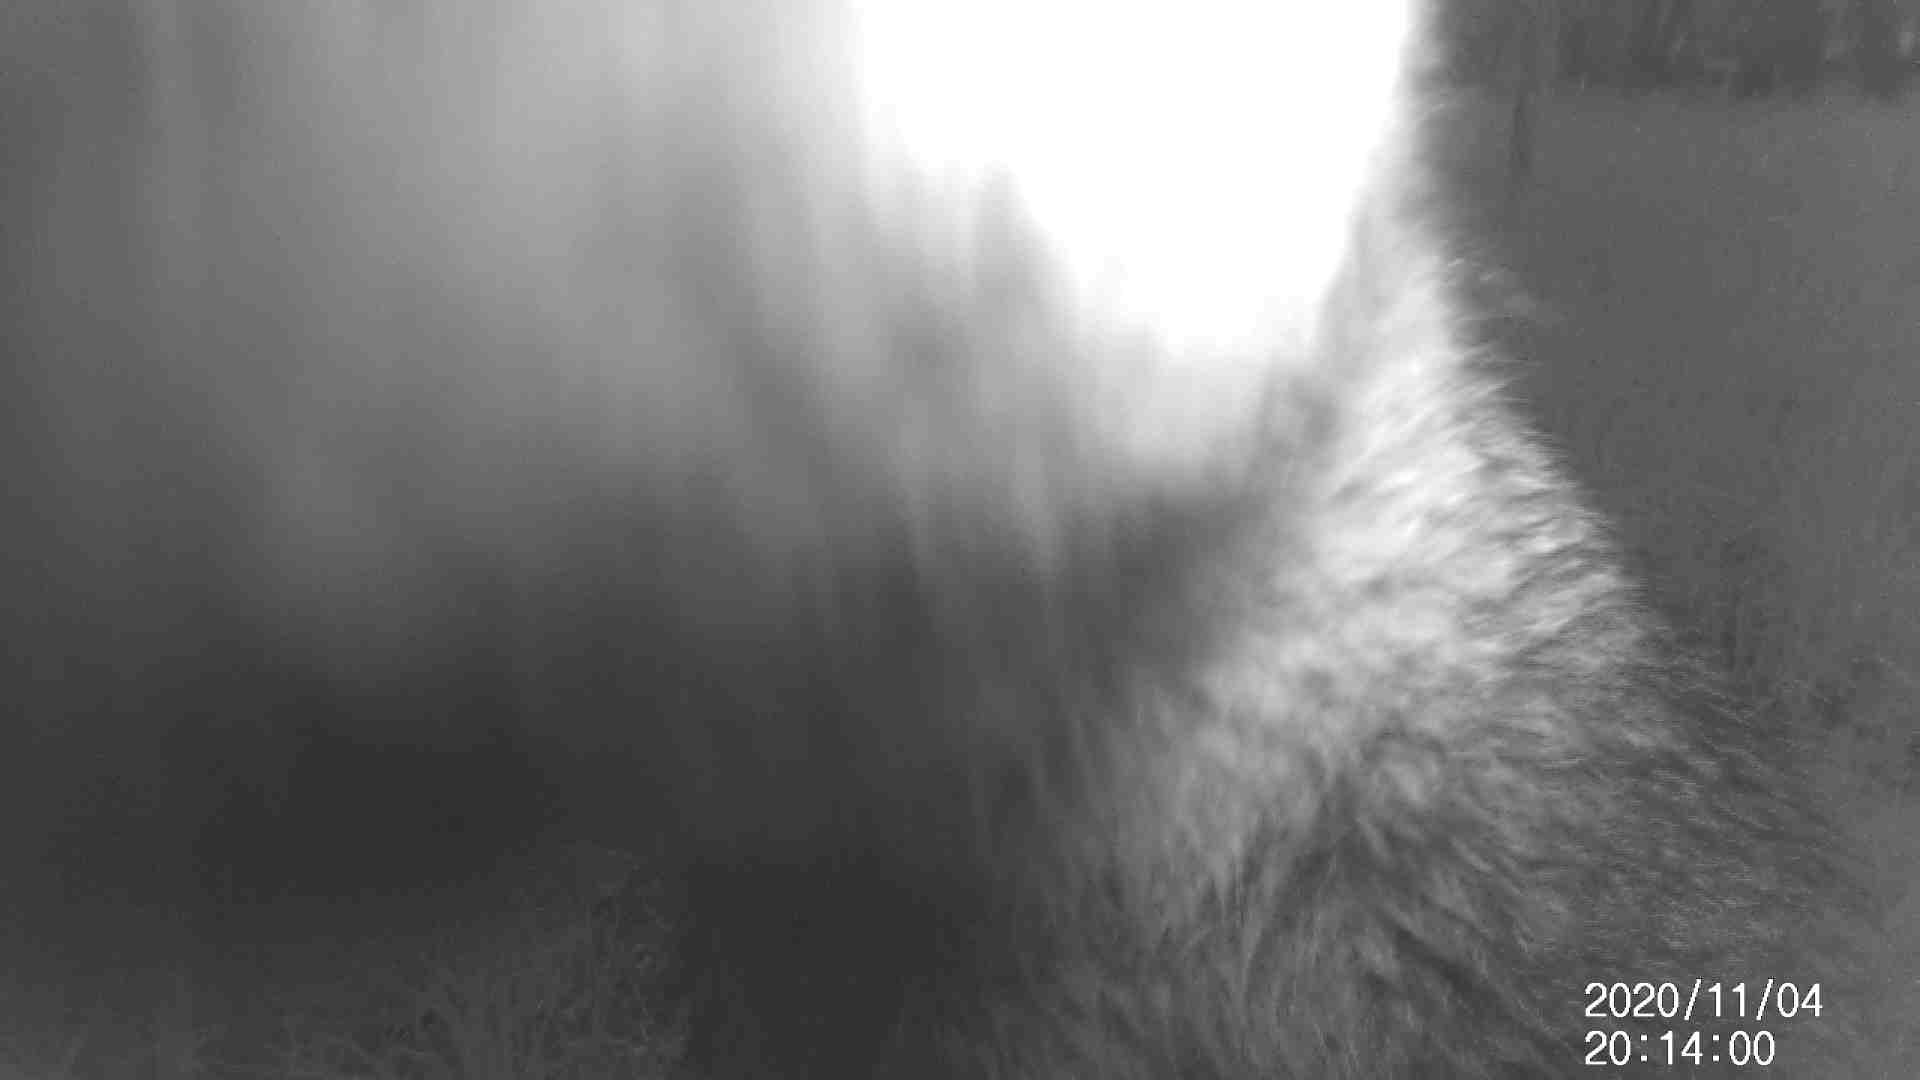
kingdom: Animalia
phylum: Chordata
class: Mammalia
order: Diprotodontia
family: Macropodidae
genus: Wallabia
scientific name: Wallabia bicolor
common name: Swamp wallaby
